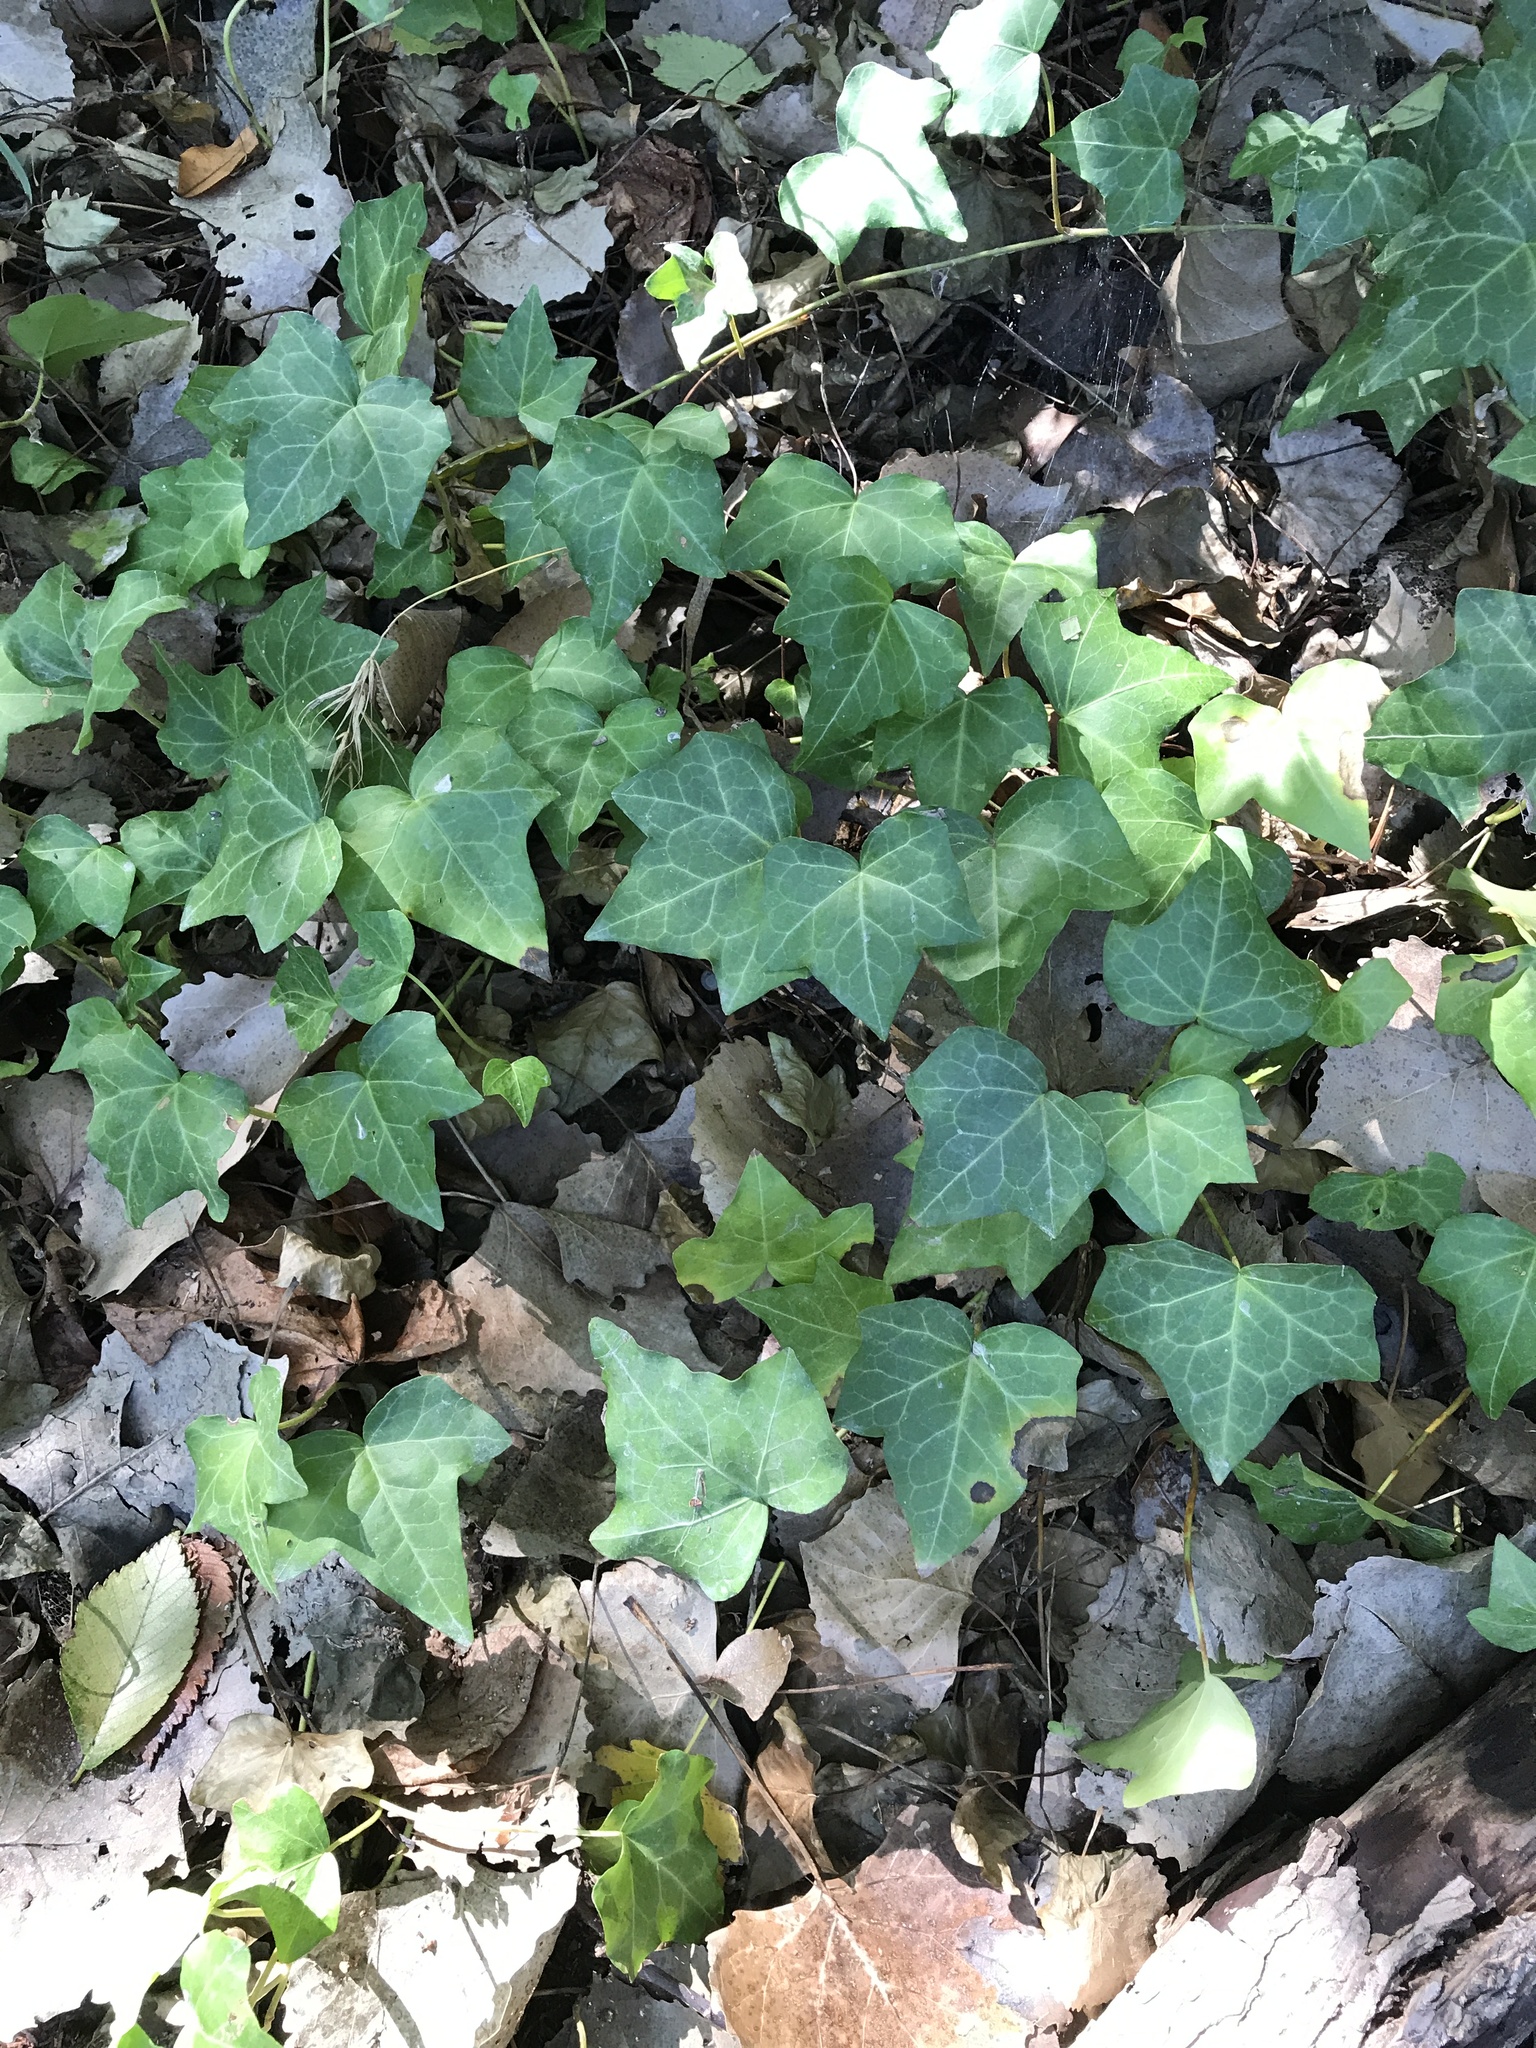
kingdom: Plantae
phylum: Tracheophyta
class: Magnoliopsida
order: Apiales
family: Araliaceae
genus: Hedera
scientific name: Hedera helix
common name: Ivy
